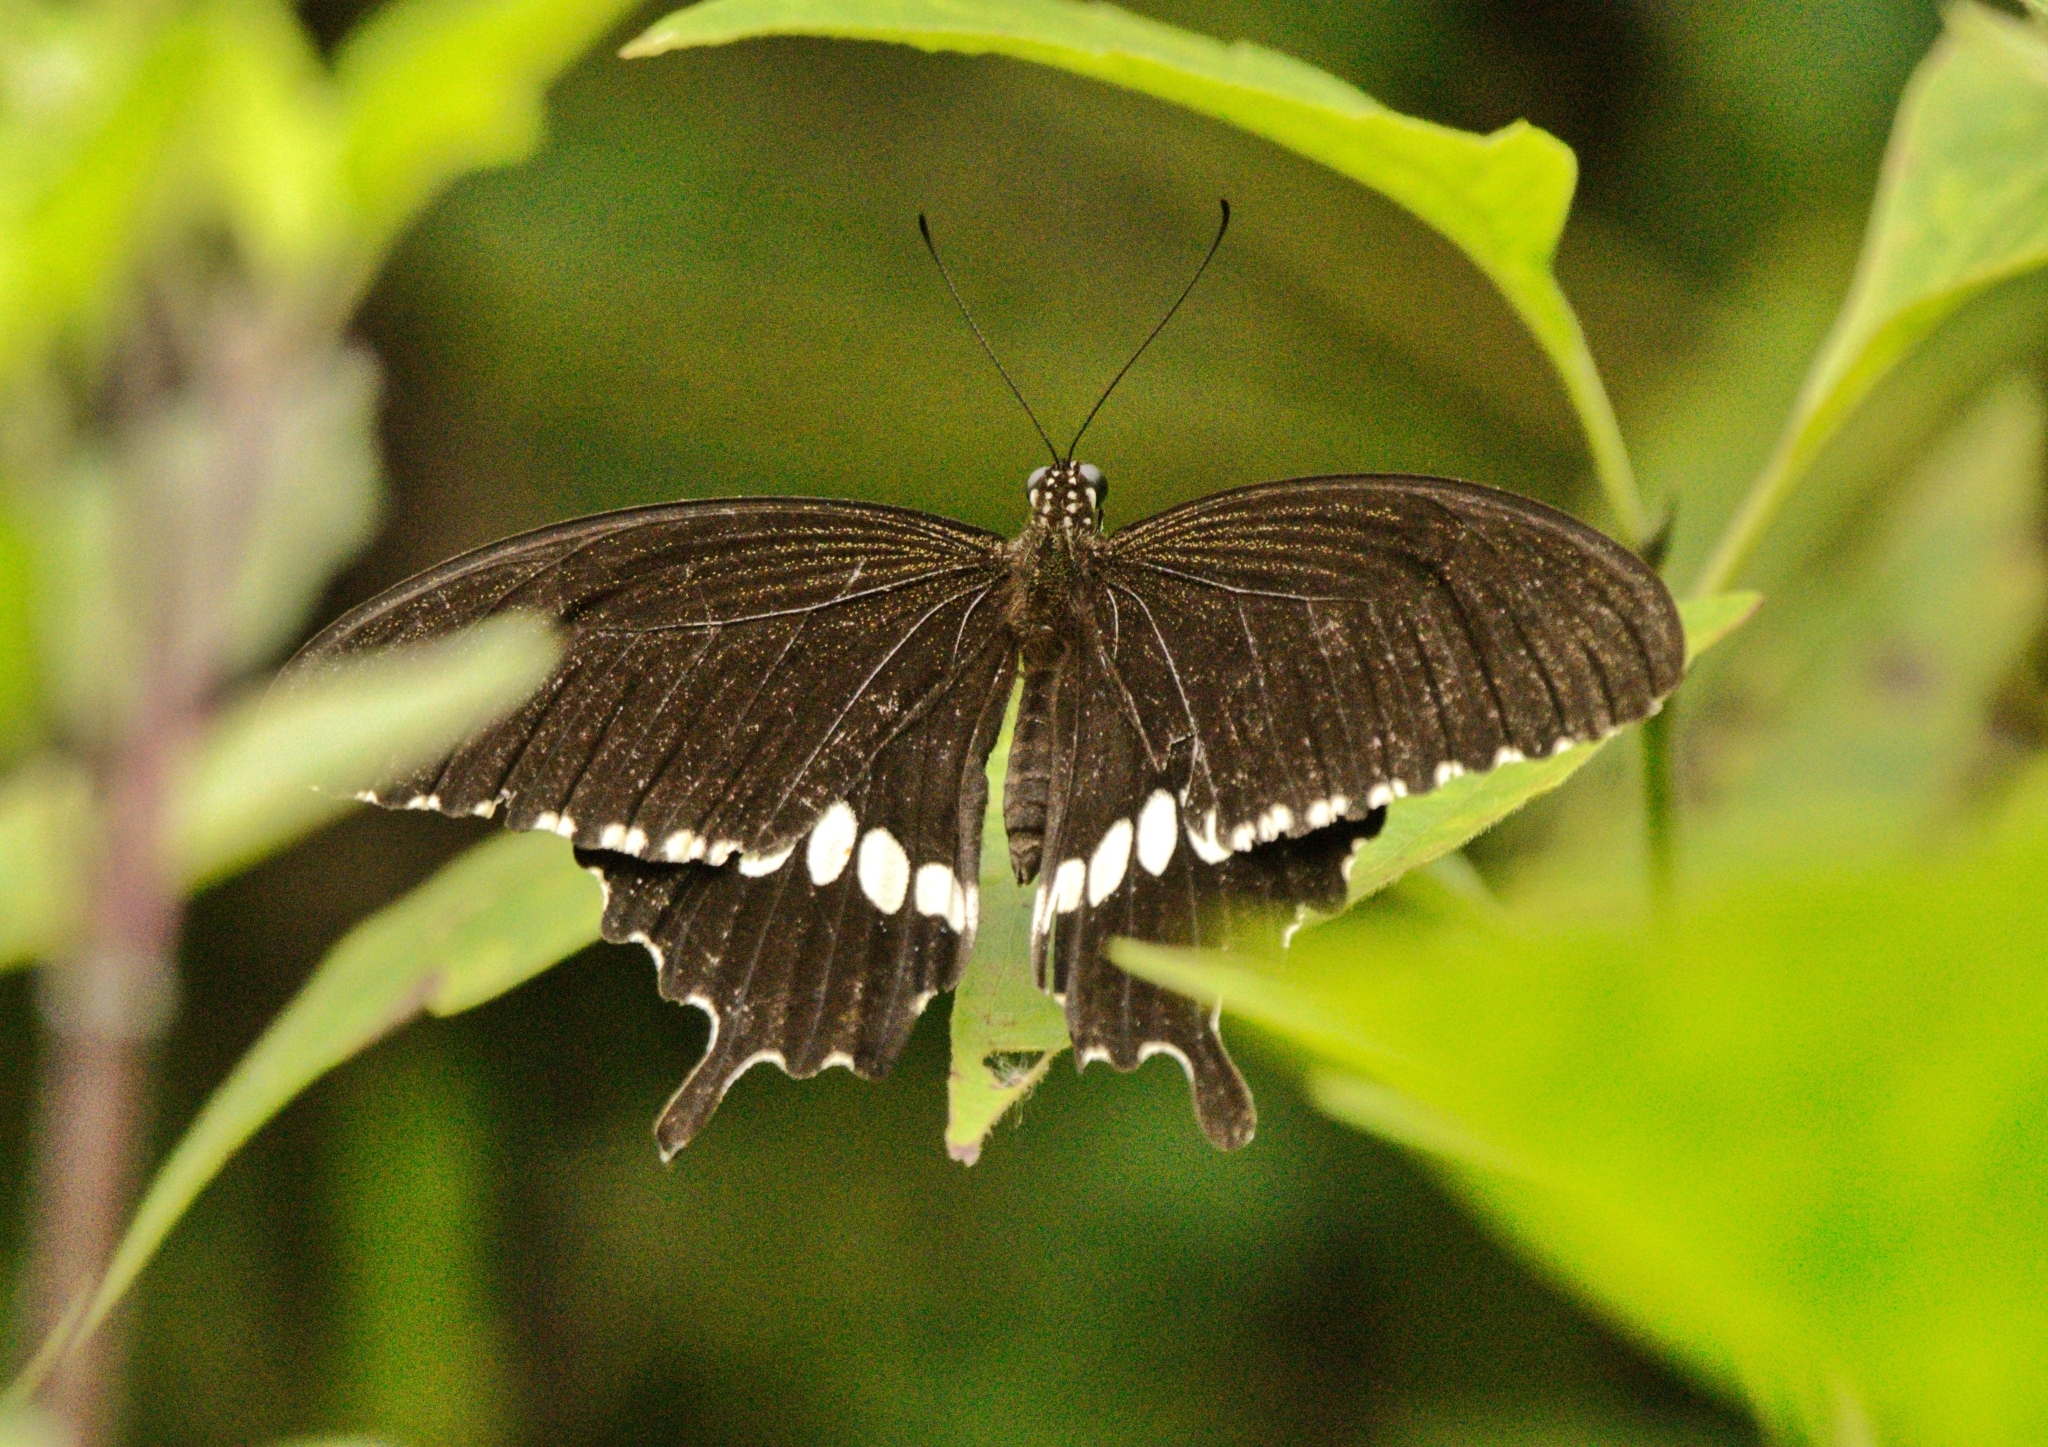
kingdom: Animalia
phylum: Arthropoda
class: Insecta
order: Lepidoptera
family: Papilionidae
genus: Papilio
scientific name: Papilio polytes
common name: Common mormon
